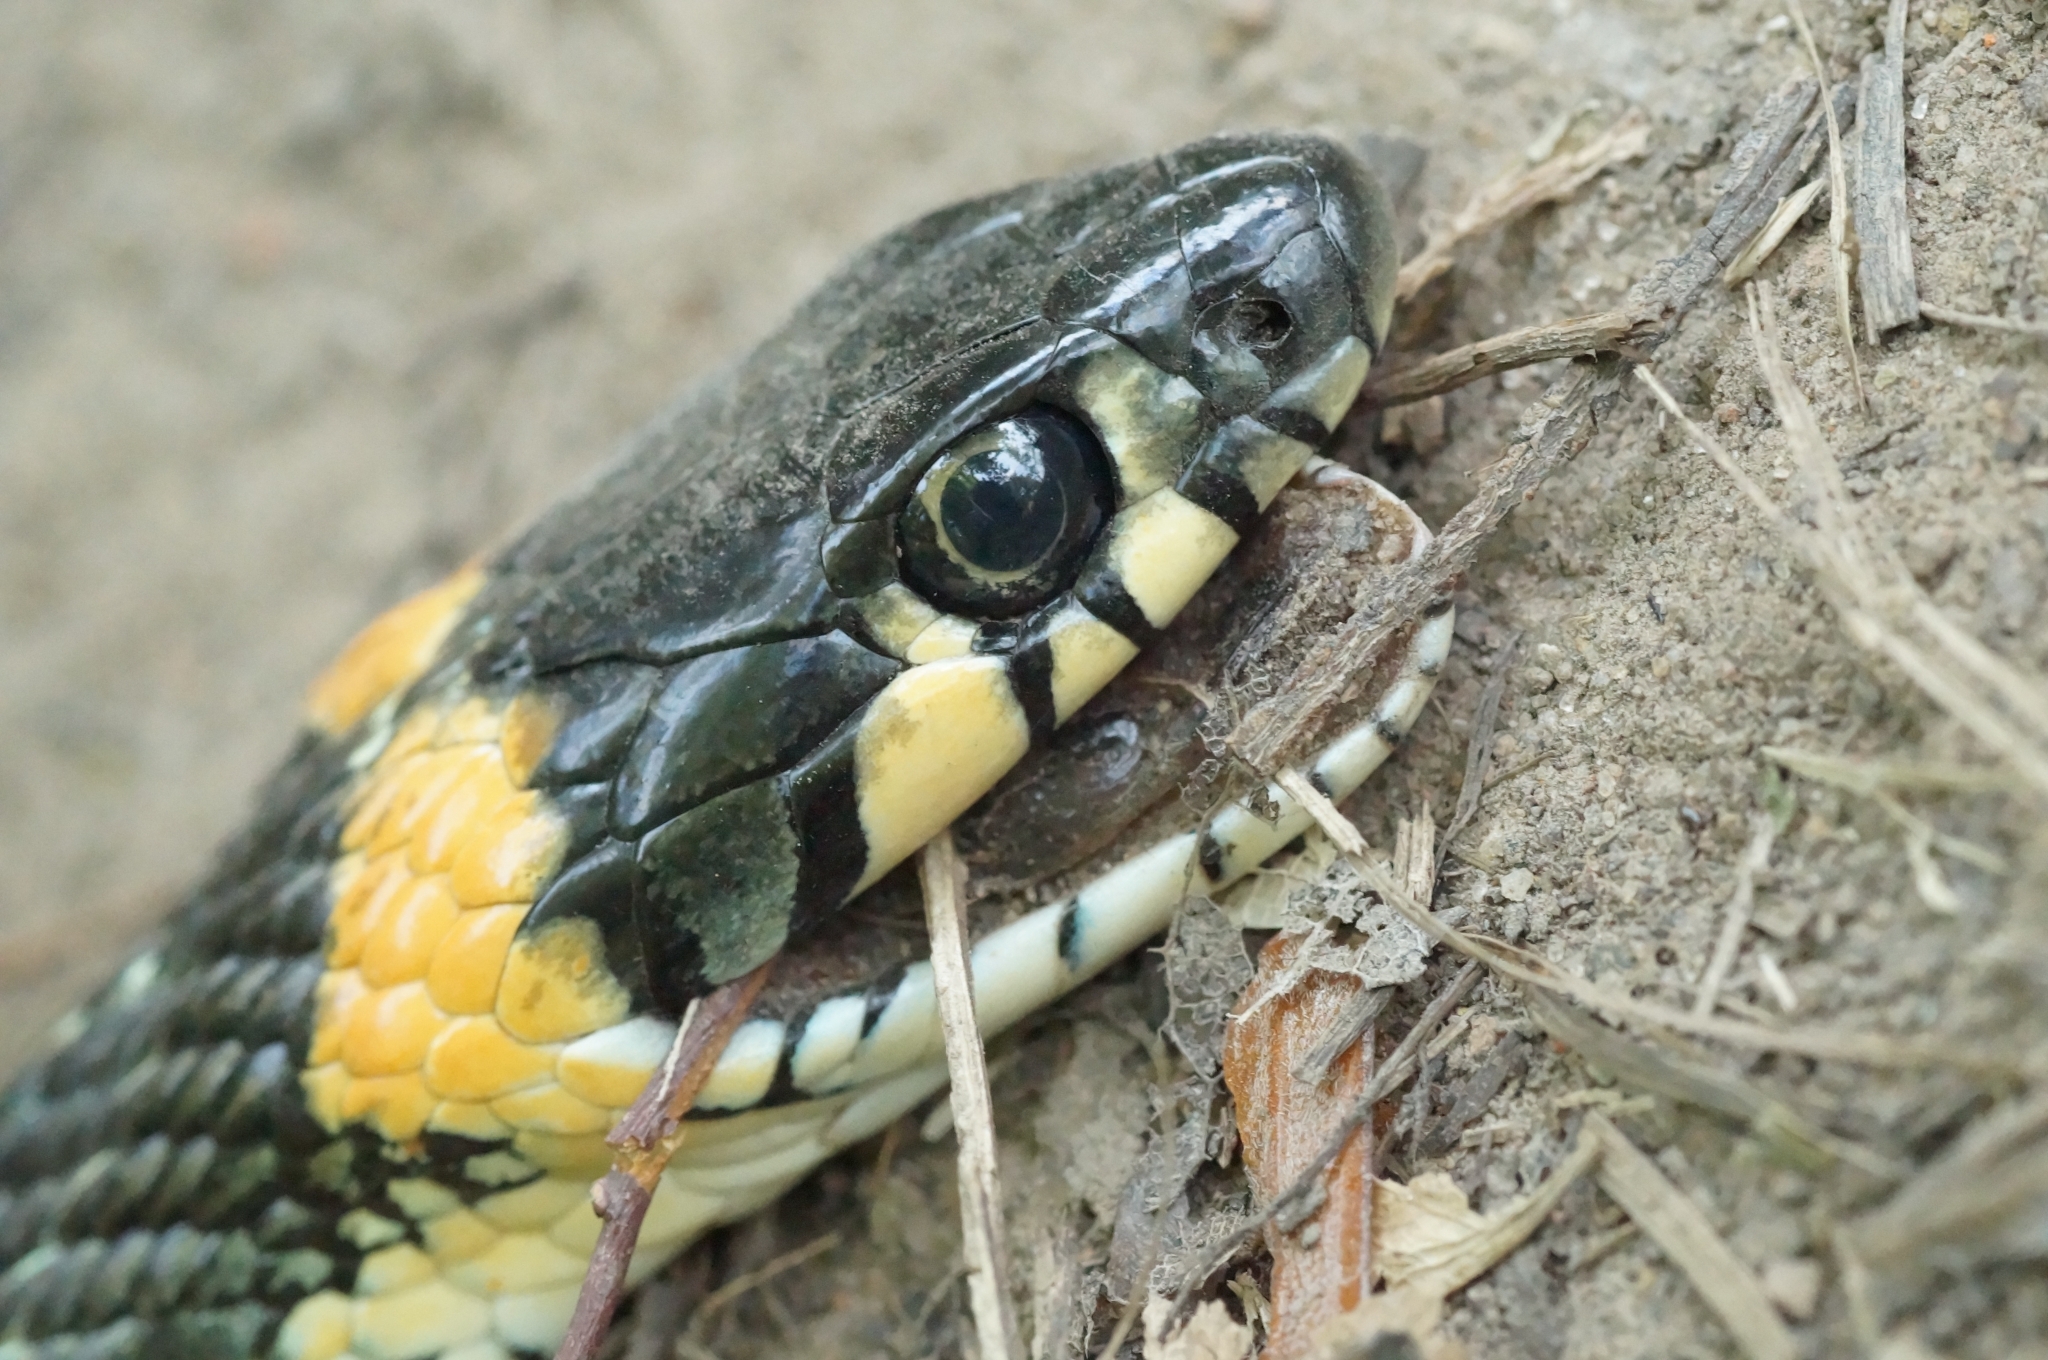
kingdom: Animalia
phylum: Chordata
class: Squamata
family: Colubridae
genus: Natrix
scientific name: Natrix natrix
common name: Grass snake
